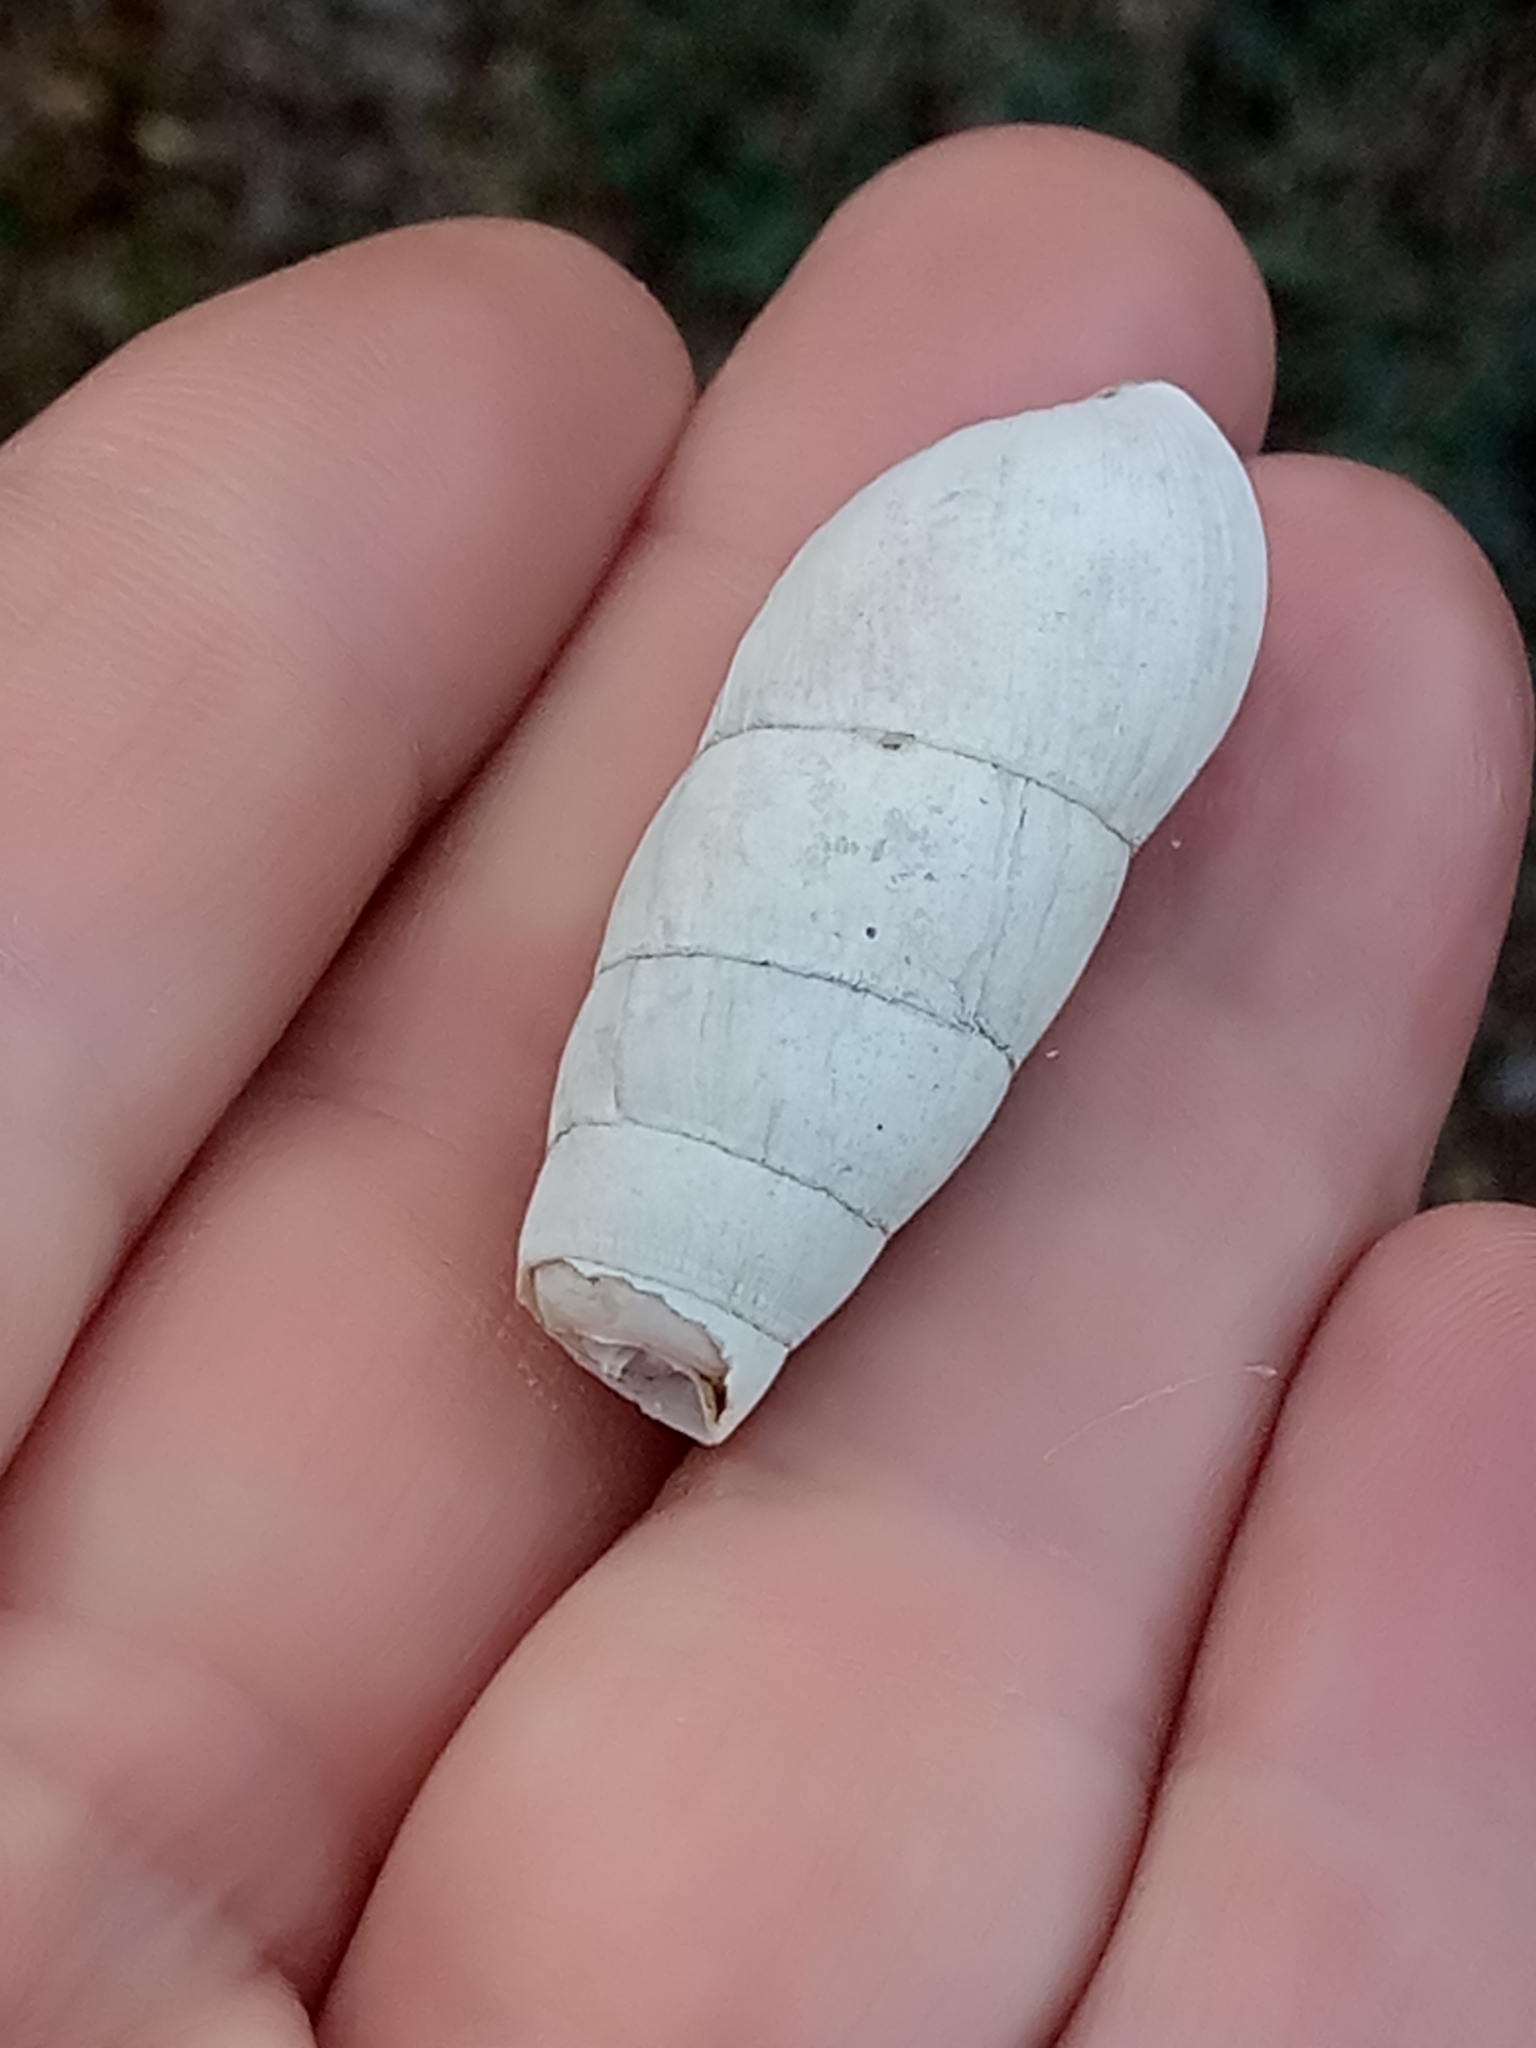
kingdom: Animalia
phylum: Mollusca
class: Gastropoda
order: Stylommatophora
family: Achatinidae
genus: Rumina
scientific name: Rumina decollata
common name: Decollate snail
